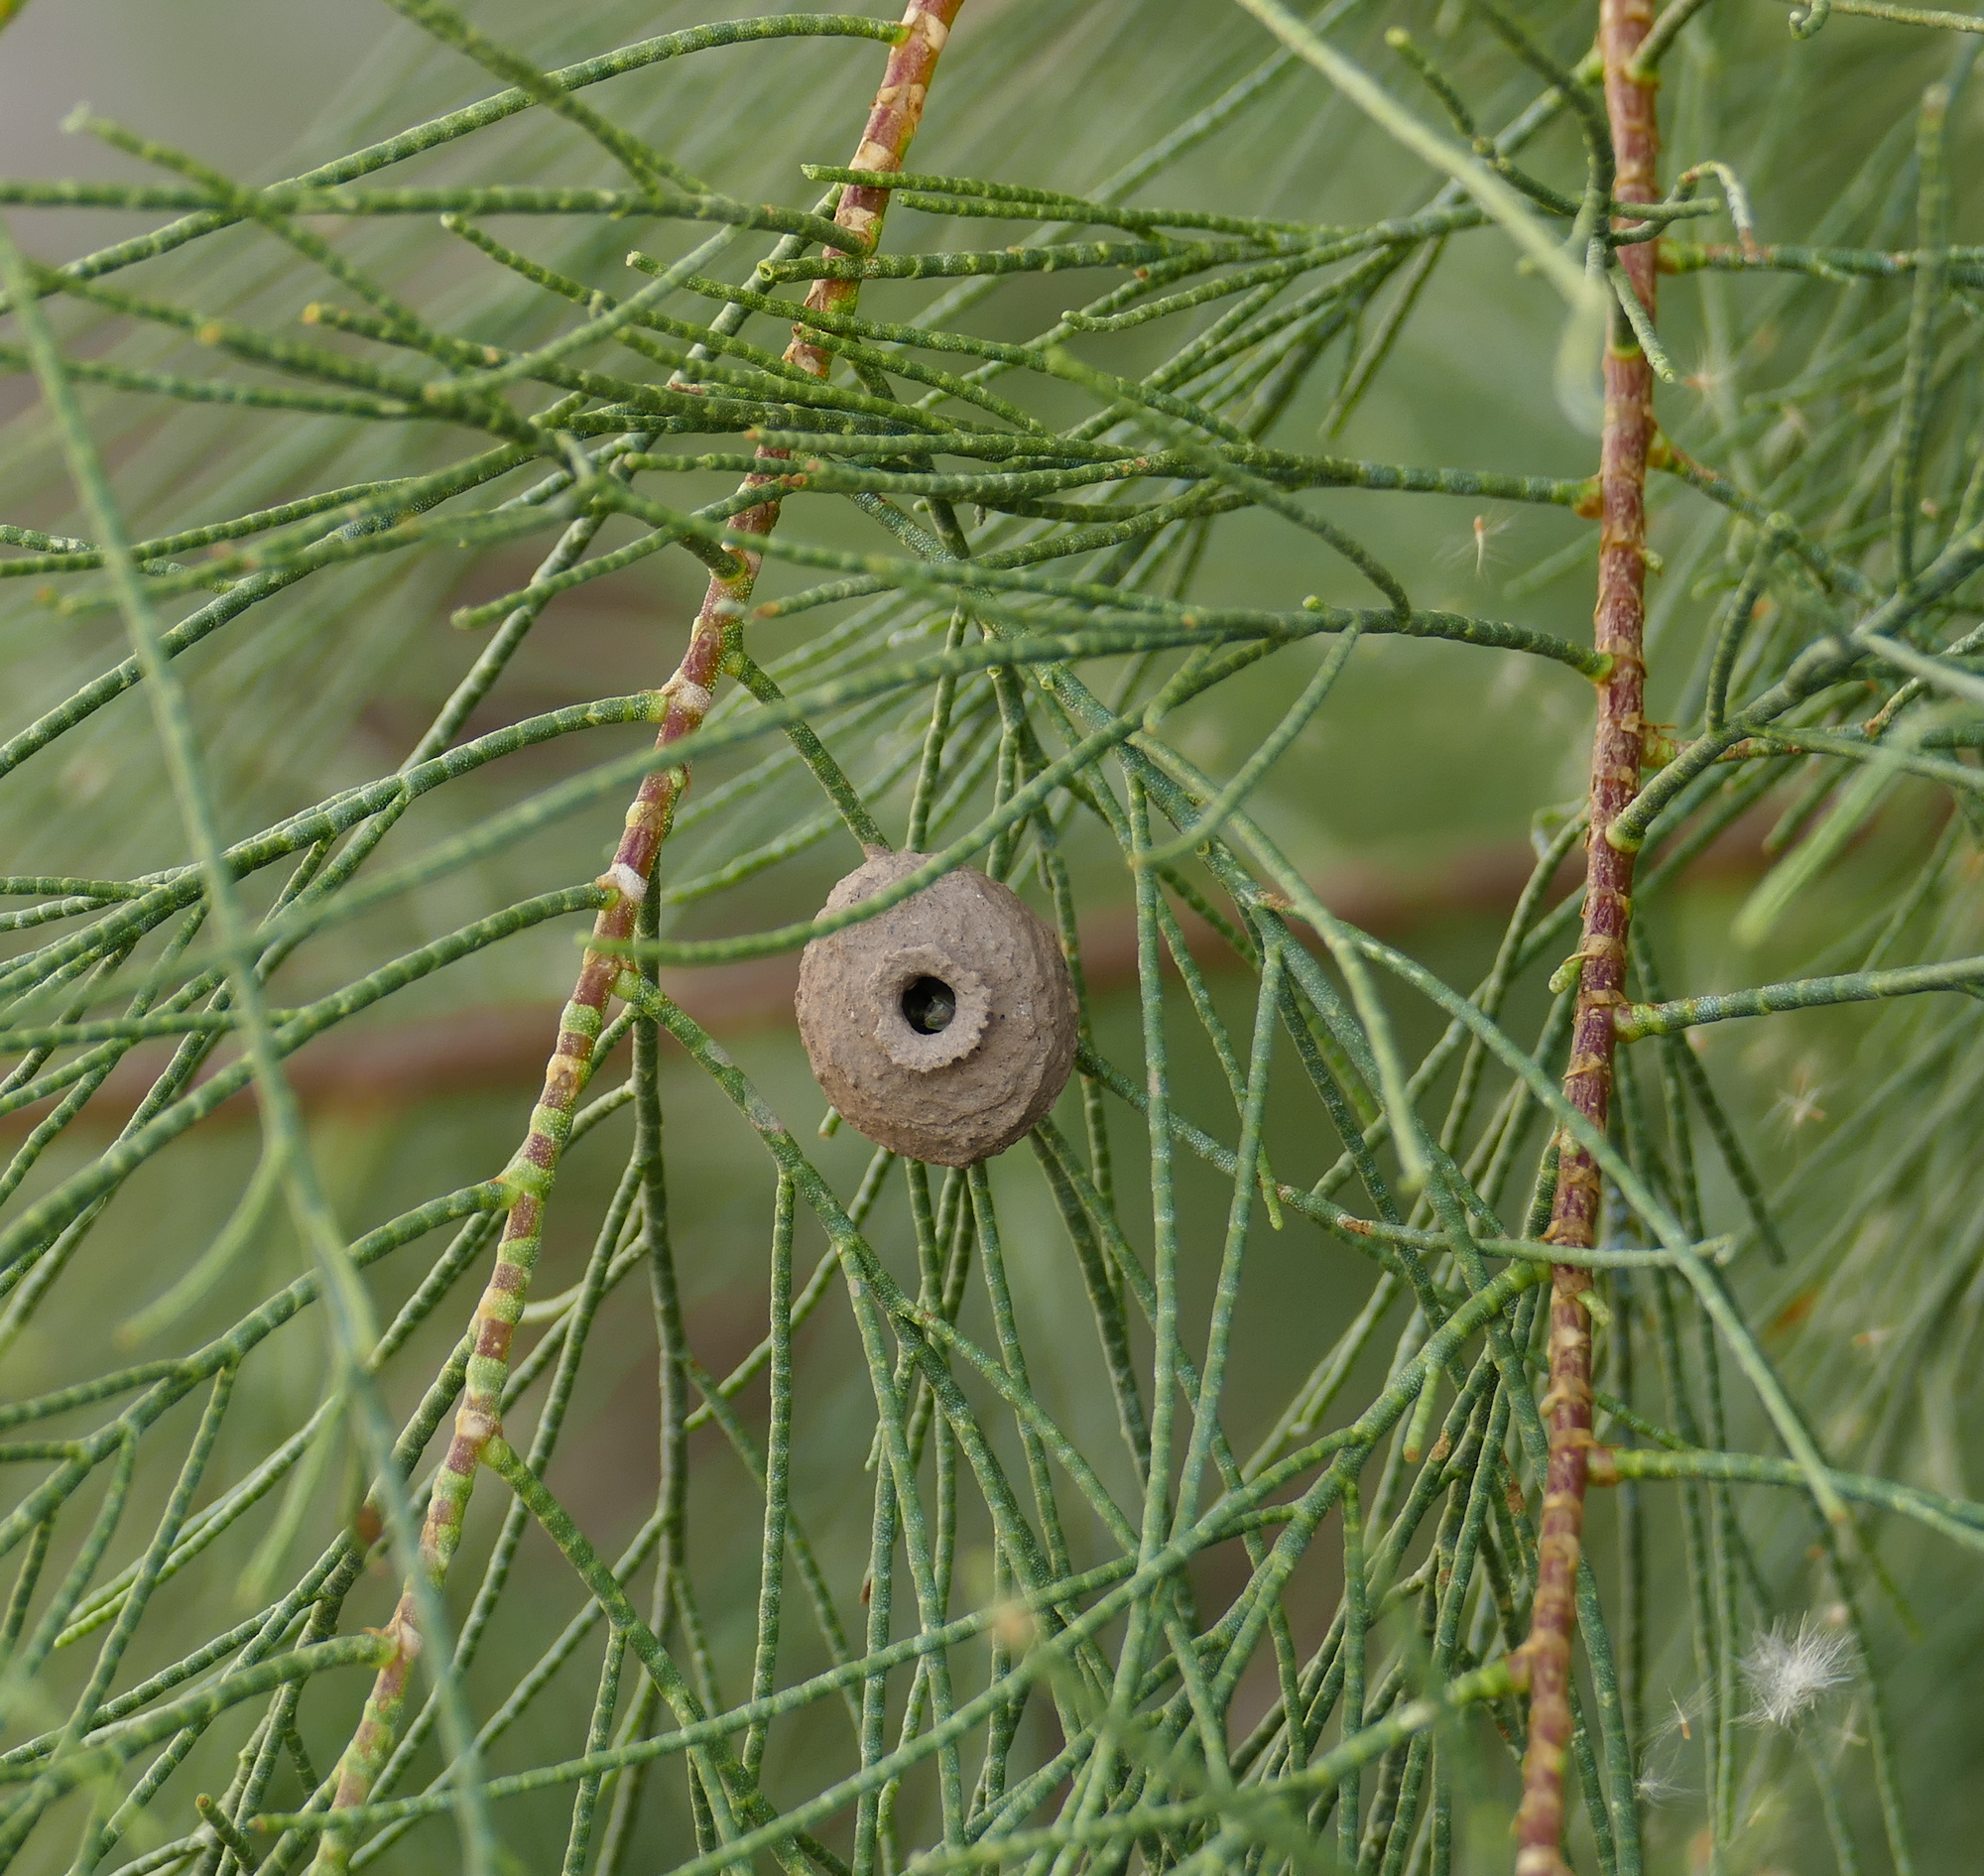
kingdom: Animalia
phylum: Arthropoda
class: Insecta
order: Hymenoptera
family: Vespidae
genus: Eumenes
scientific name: Eumenes
